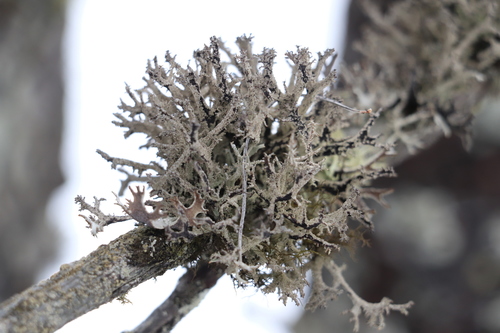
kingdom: Fungi
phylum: Ascomycota
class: Lecanoromycetes
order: Lecanorales
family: Parmeliaceae
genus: Evernia
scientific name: Evernia prunastri
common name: Oak moss
